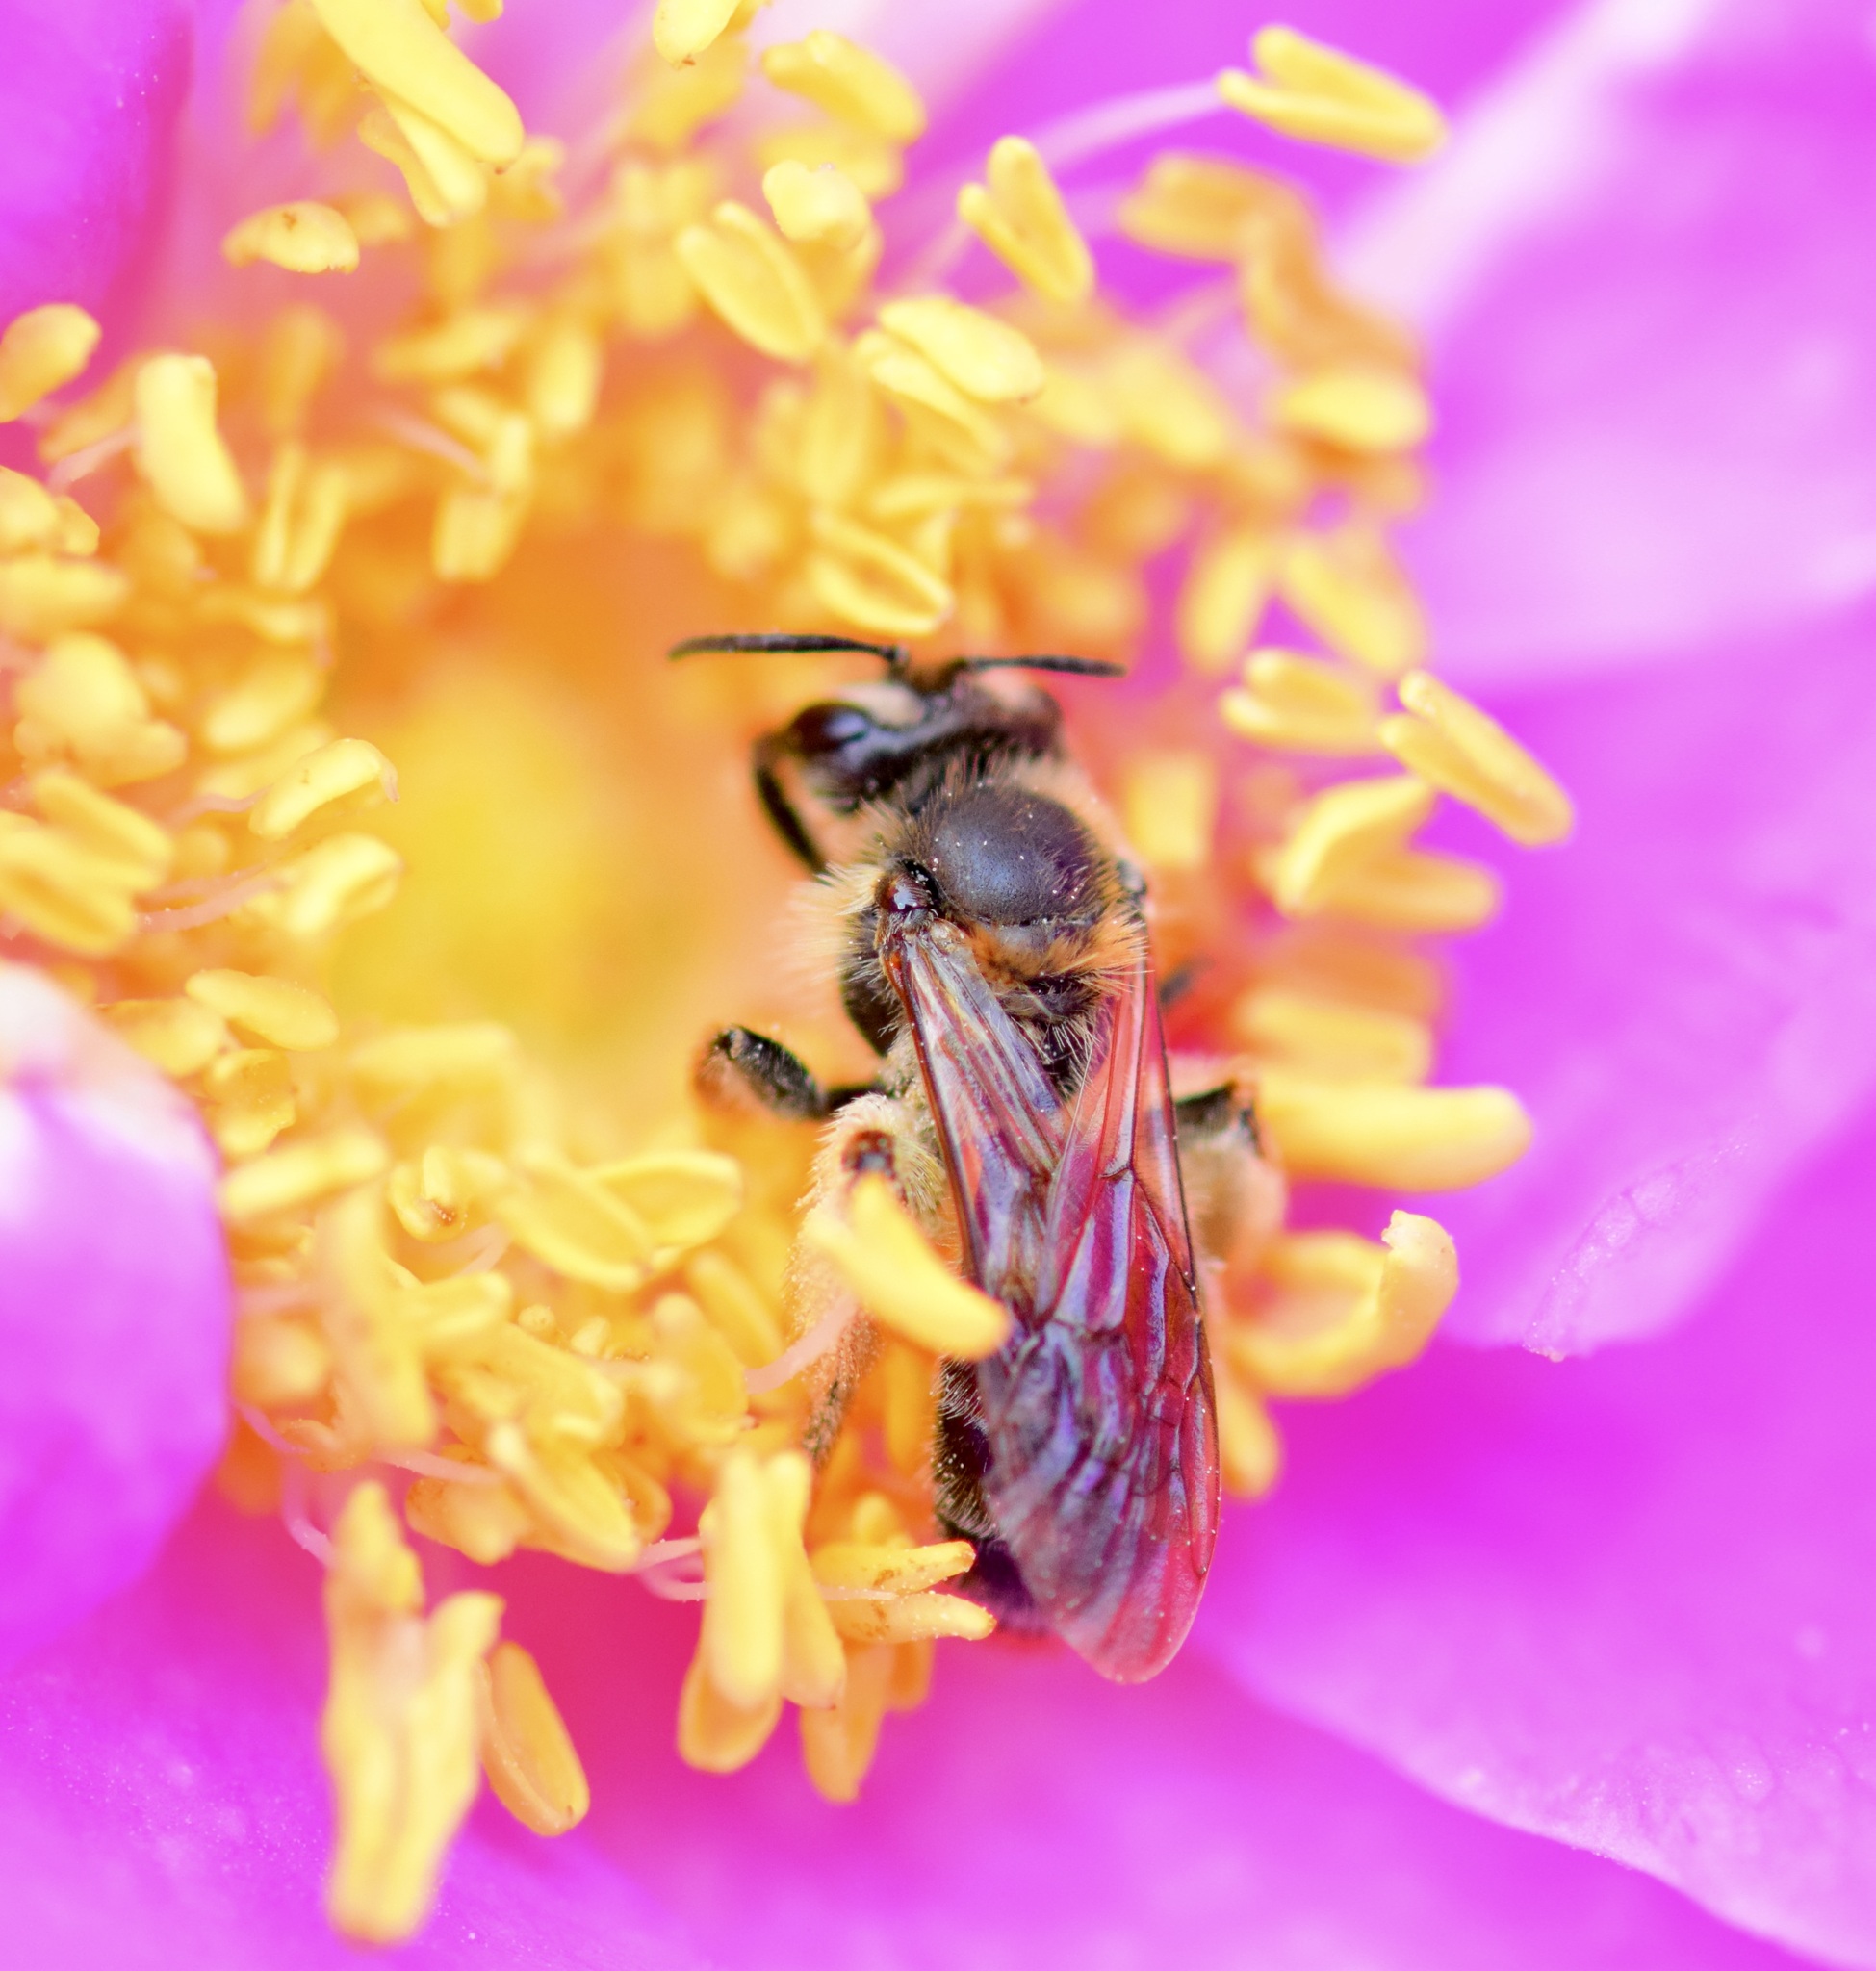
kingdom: Animalia
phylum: Arthropoda
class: Insecta
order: Hymenoptera
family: Andrenidae
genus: Andrena
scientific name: Andrena thaspii
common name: Parsnip miner bee
